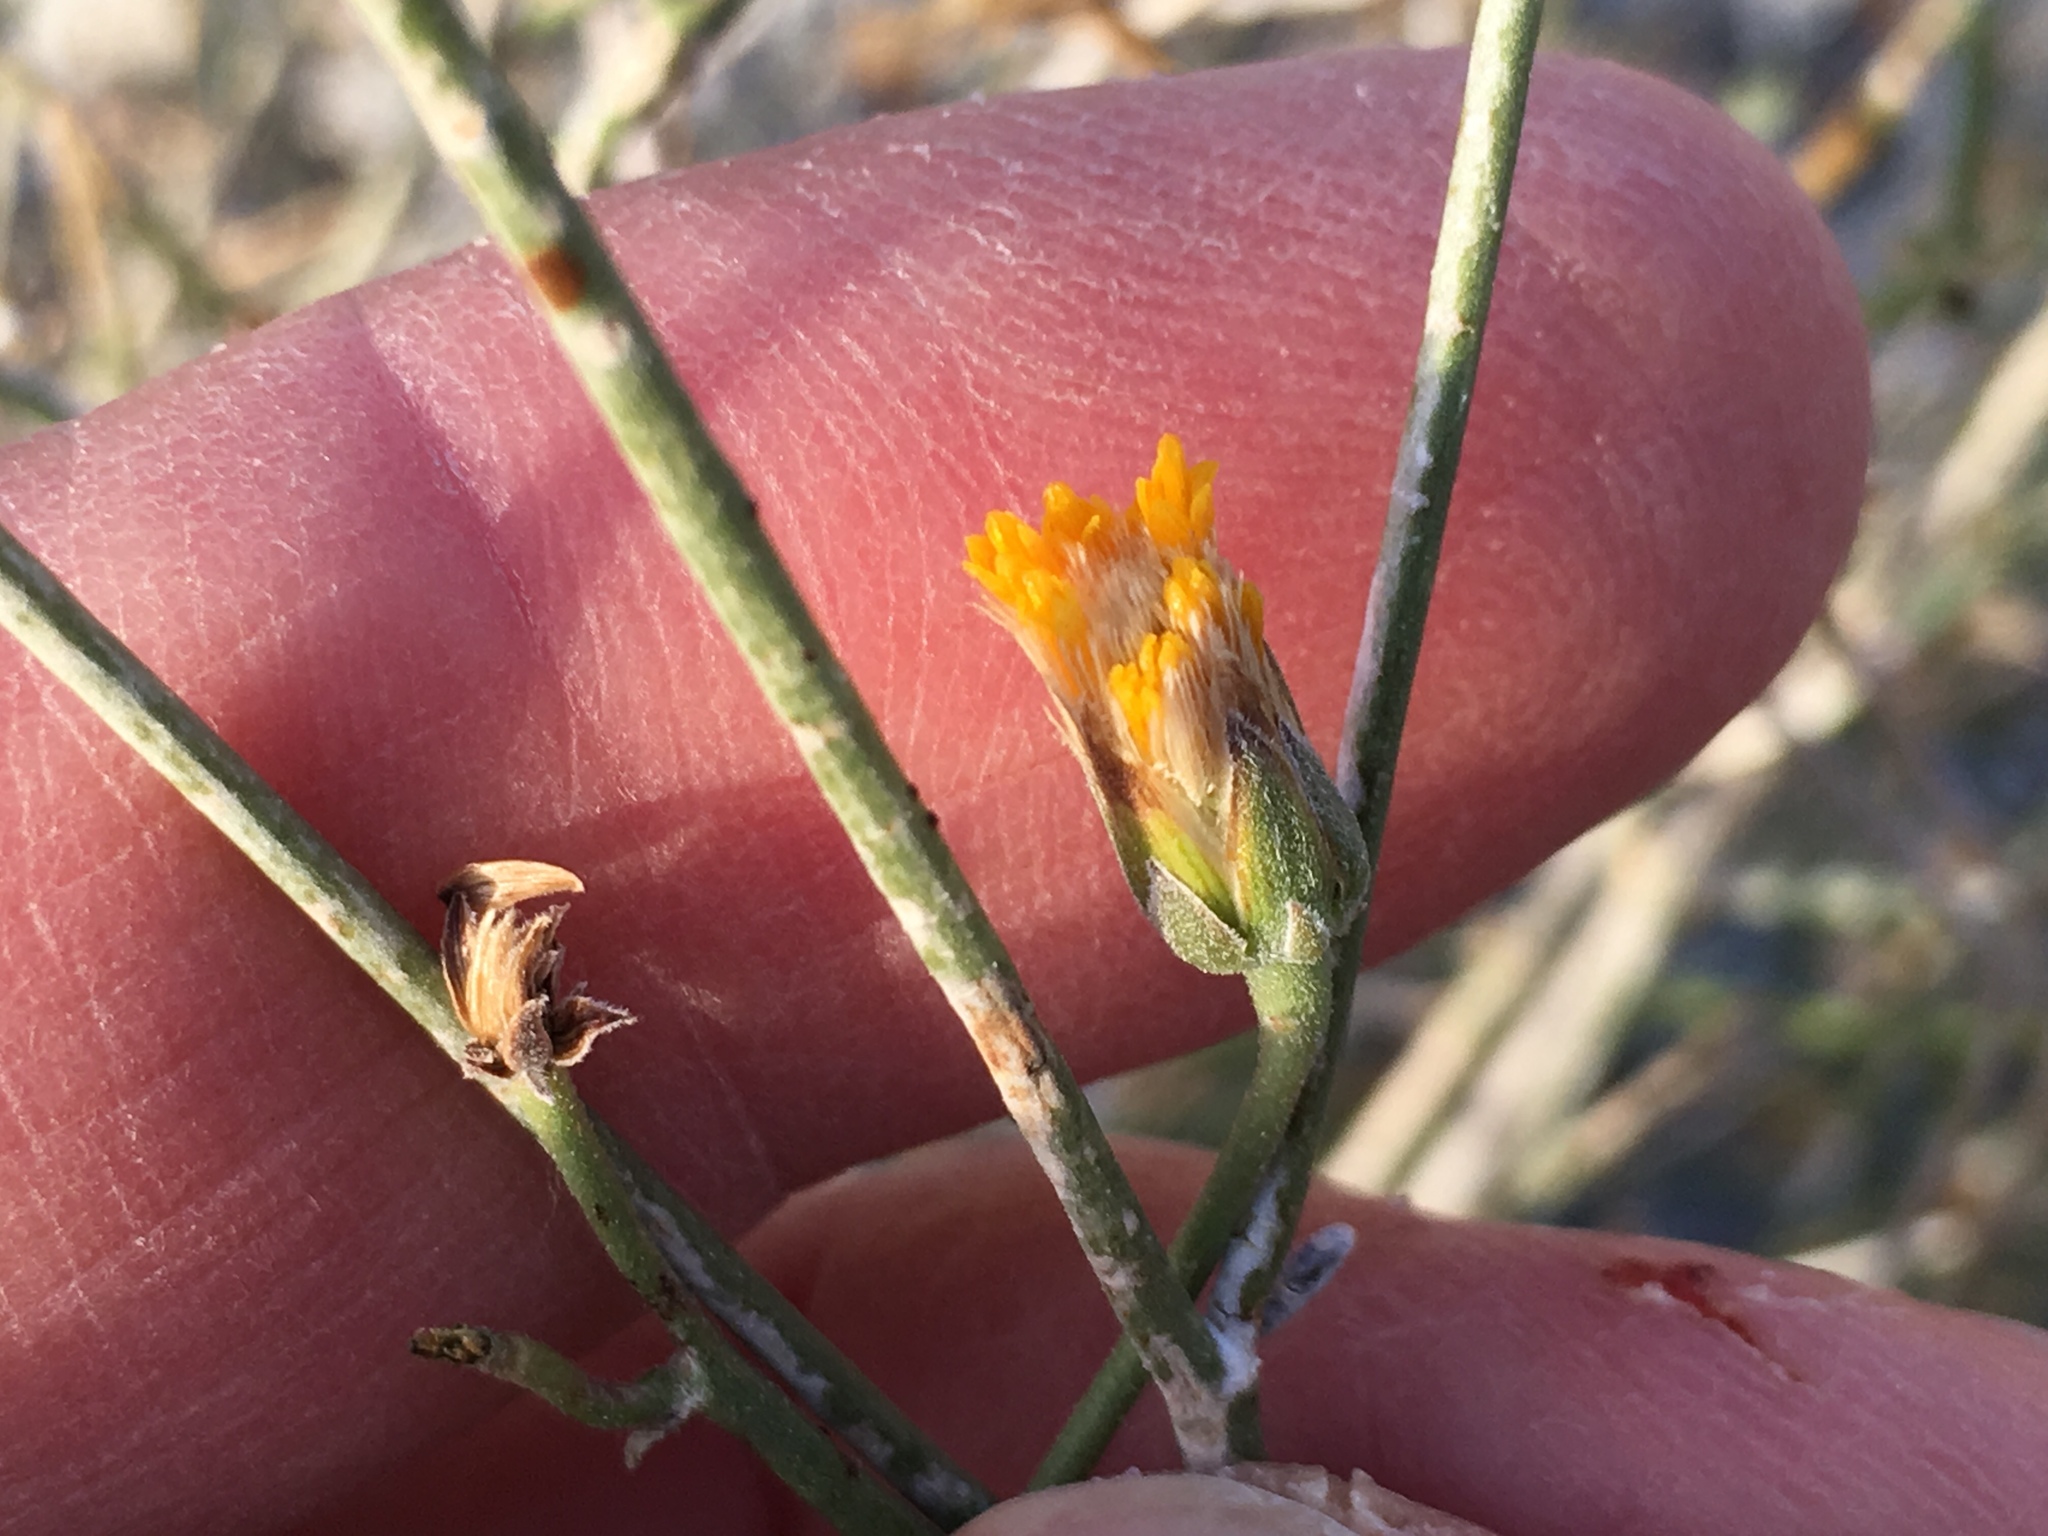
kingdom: Plantae
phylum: Tracheophyta
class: Magnoliopsida
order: Asterales
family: Asteraceae
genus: Bebbia
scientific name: Bebbia juncea
